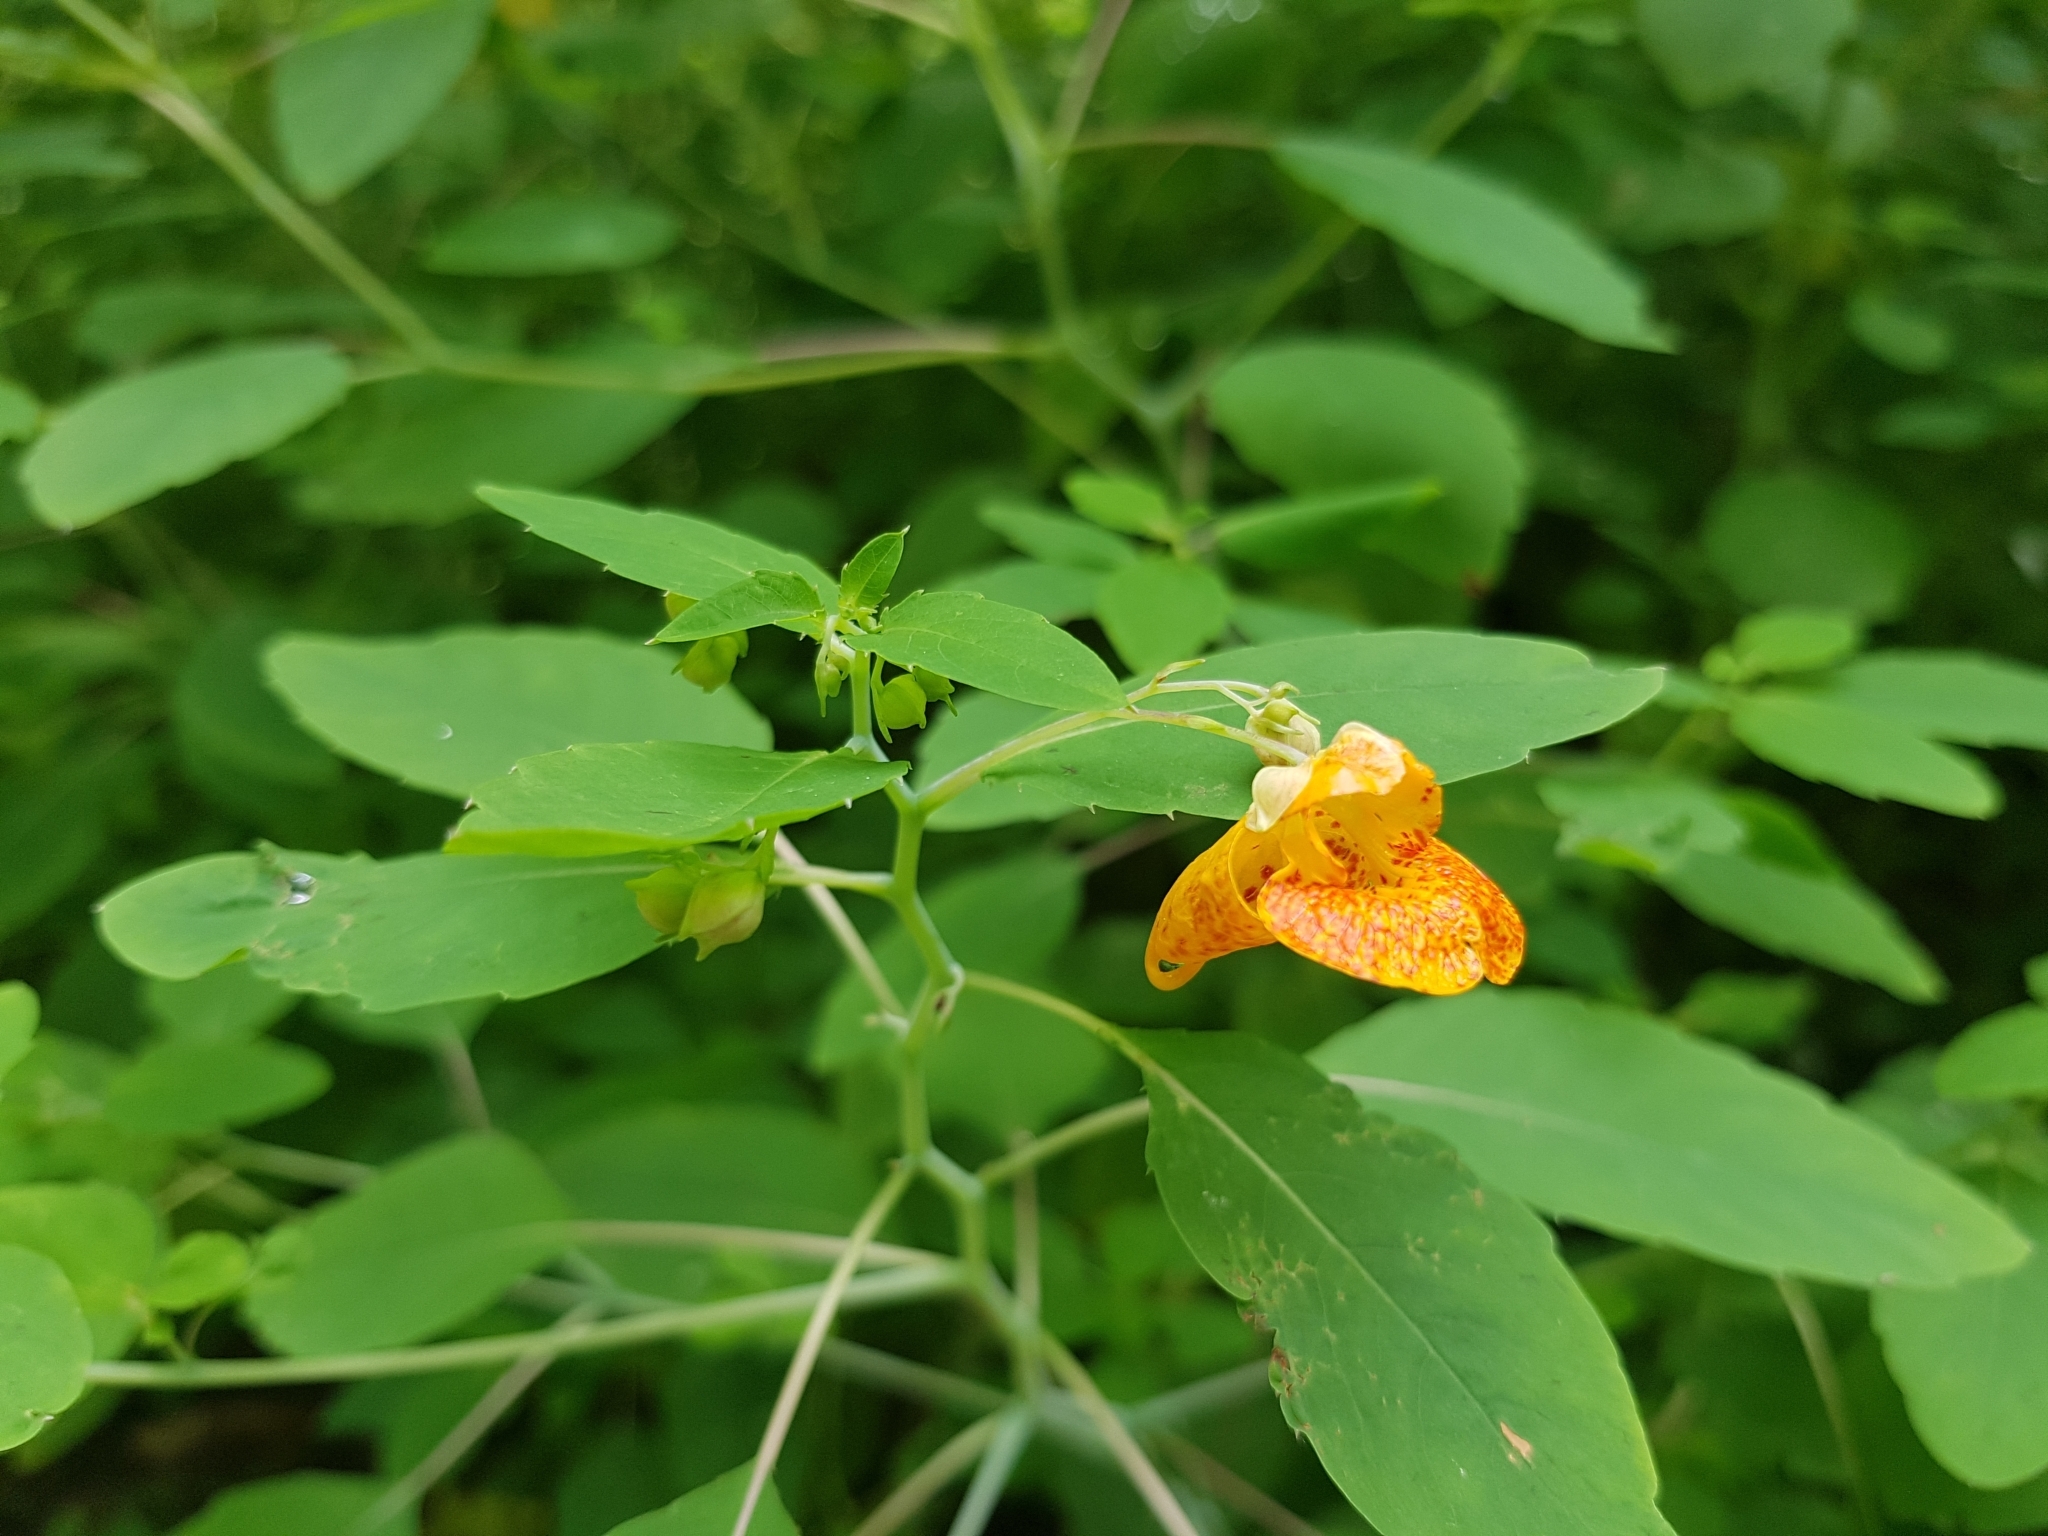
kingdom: Plantae
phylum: Tracheophyta
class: Magnoliopsida
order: Ericales
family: Balsaminaceae
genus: Impatiens
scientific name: Impatiens capensis
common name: Orange balsam
